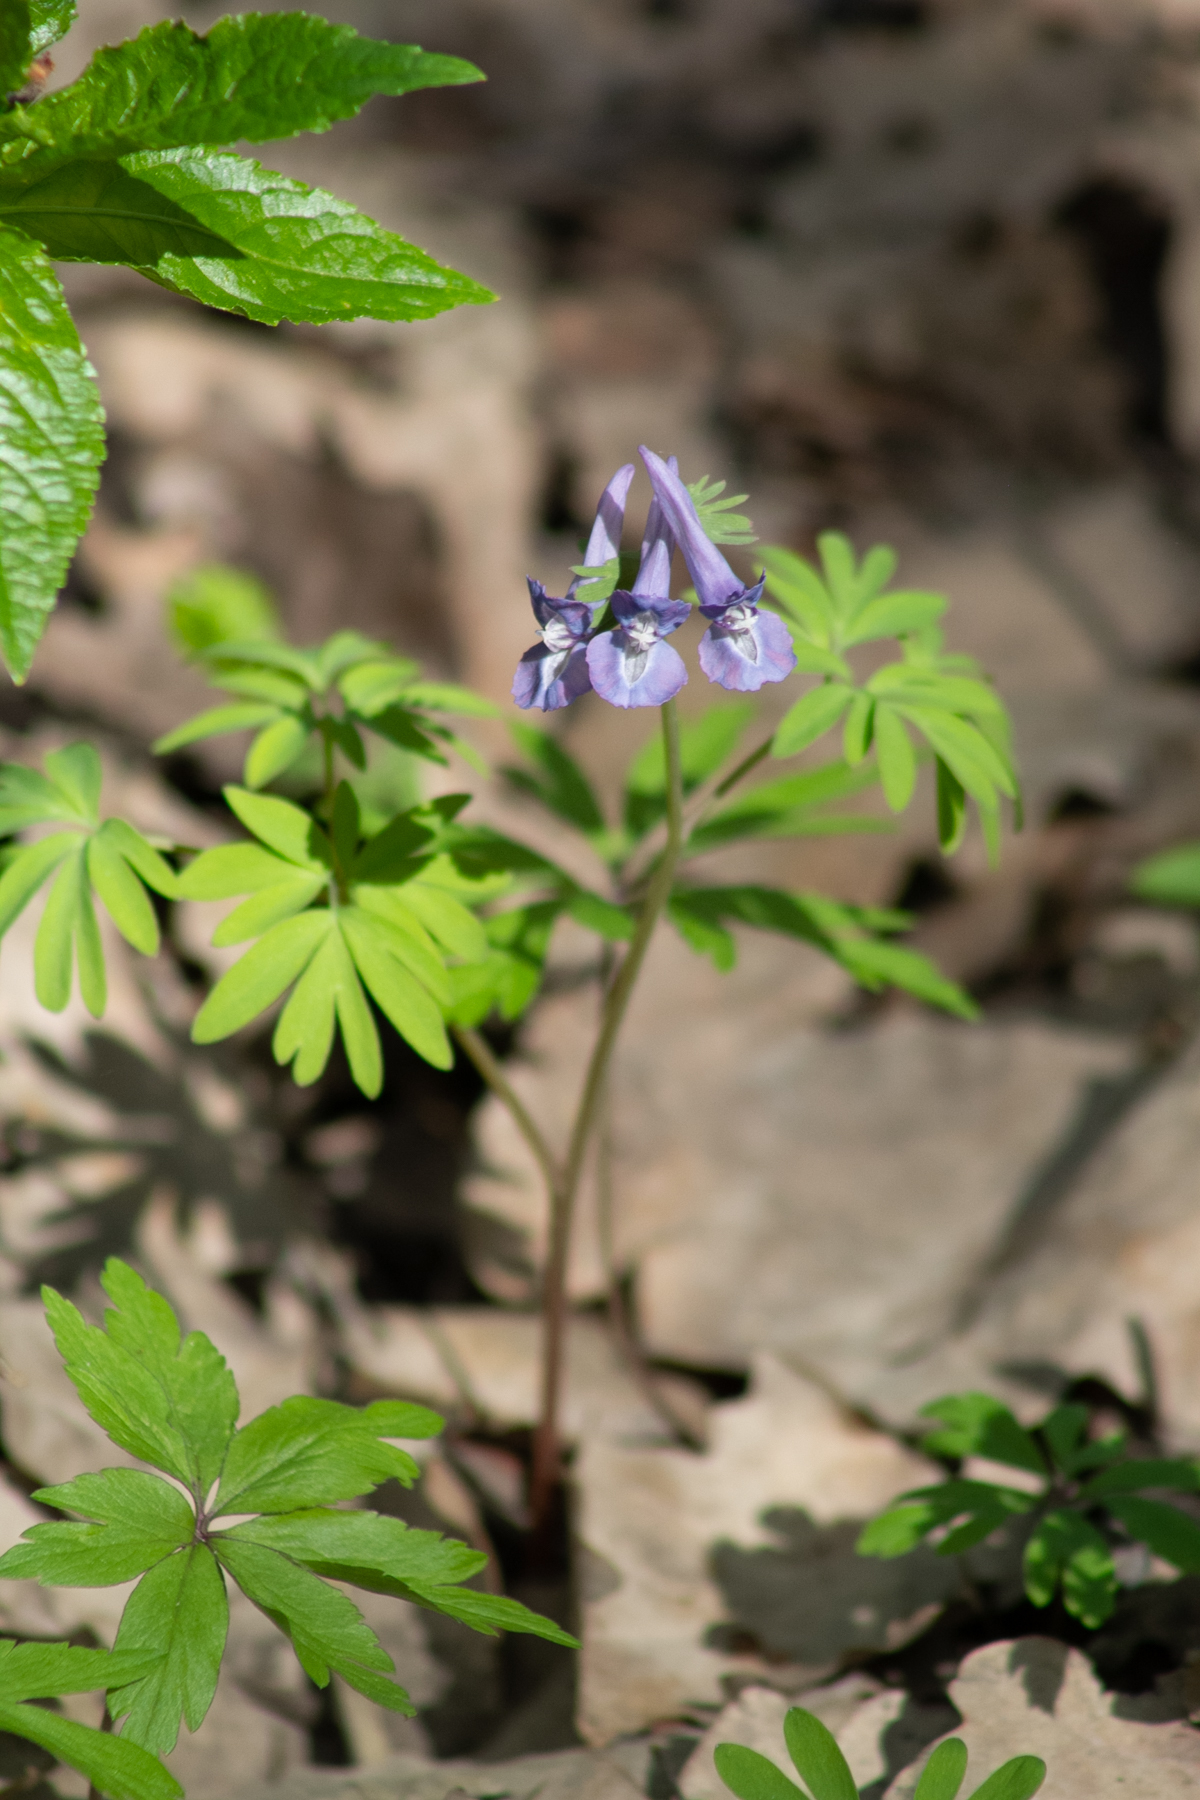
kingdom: Plantae
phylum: Tracheophyta
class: Magnoliopsida
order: Ranunculales
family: Papaveraceae
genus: Corydalis
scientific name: Corydalis solida
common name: Bird-in-a-bush
